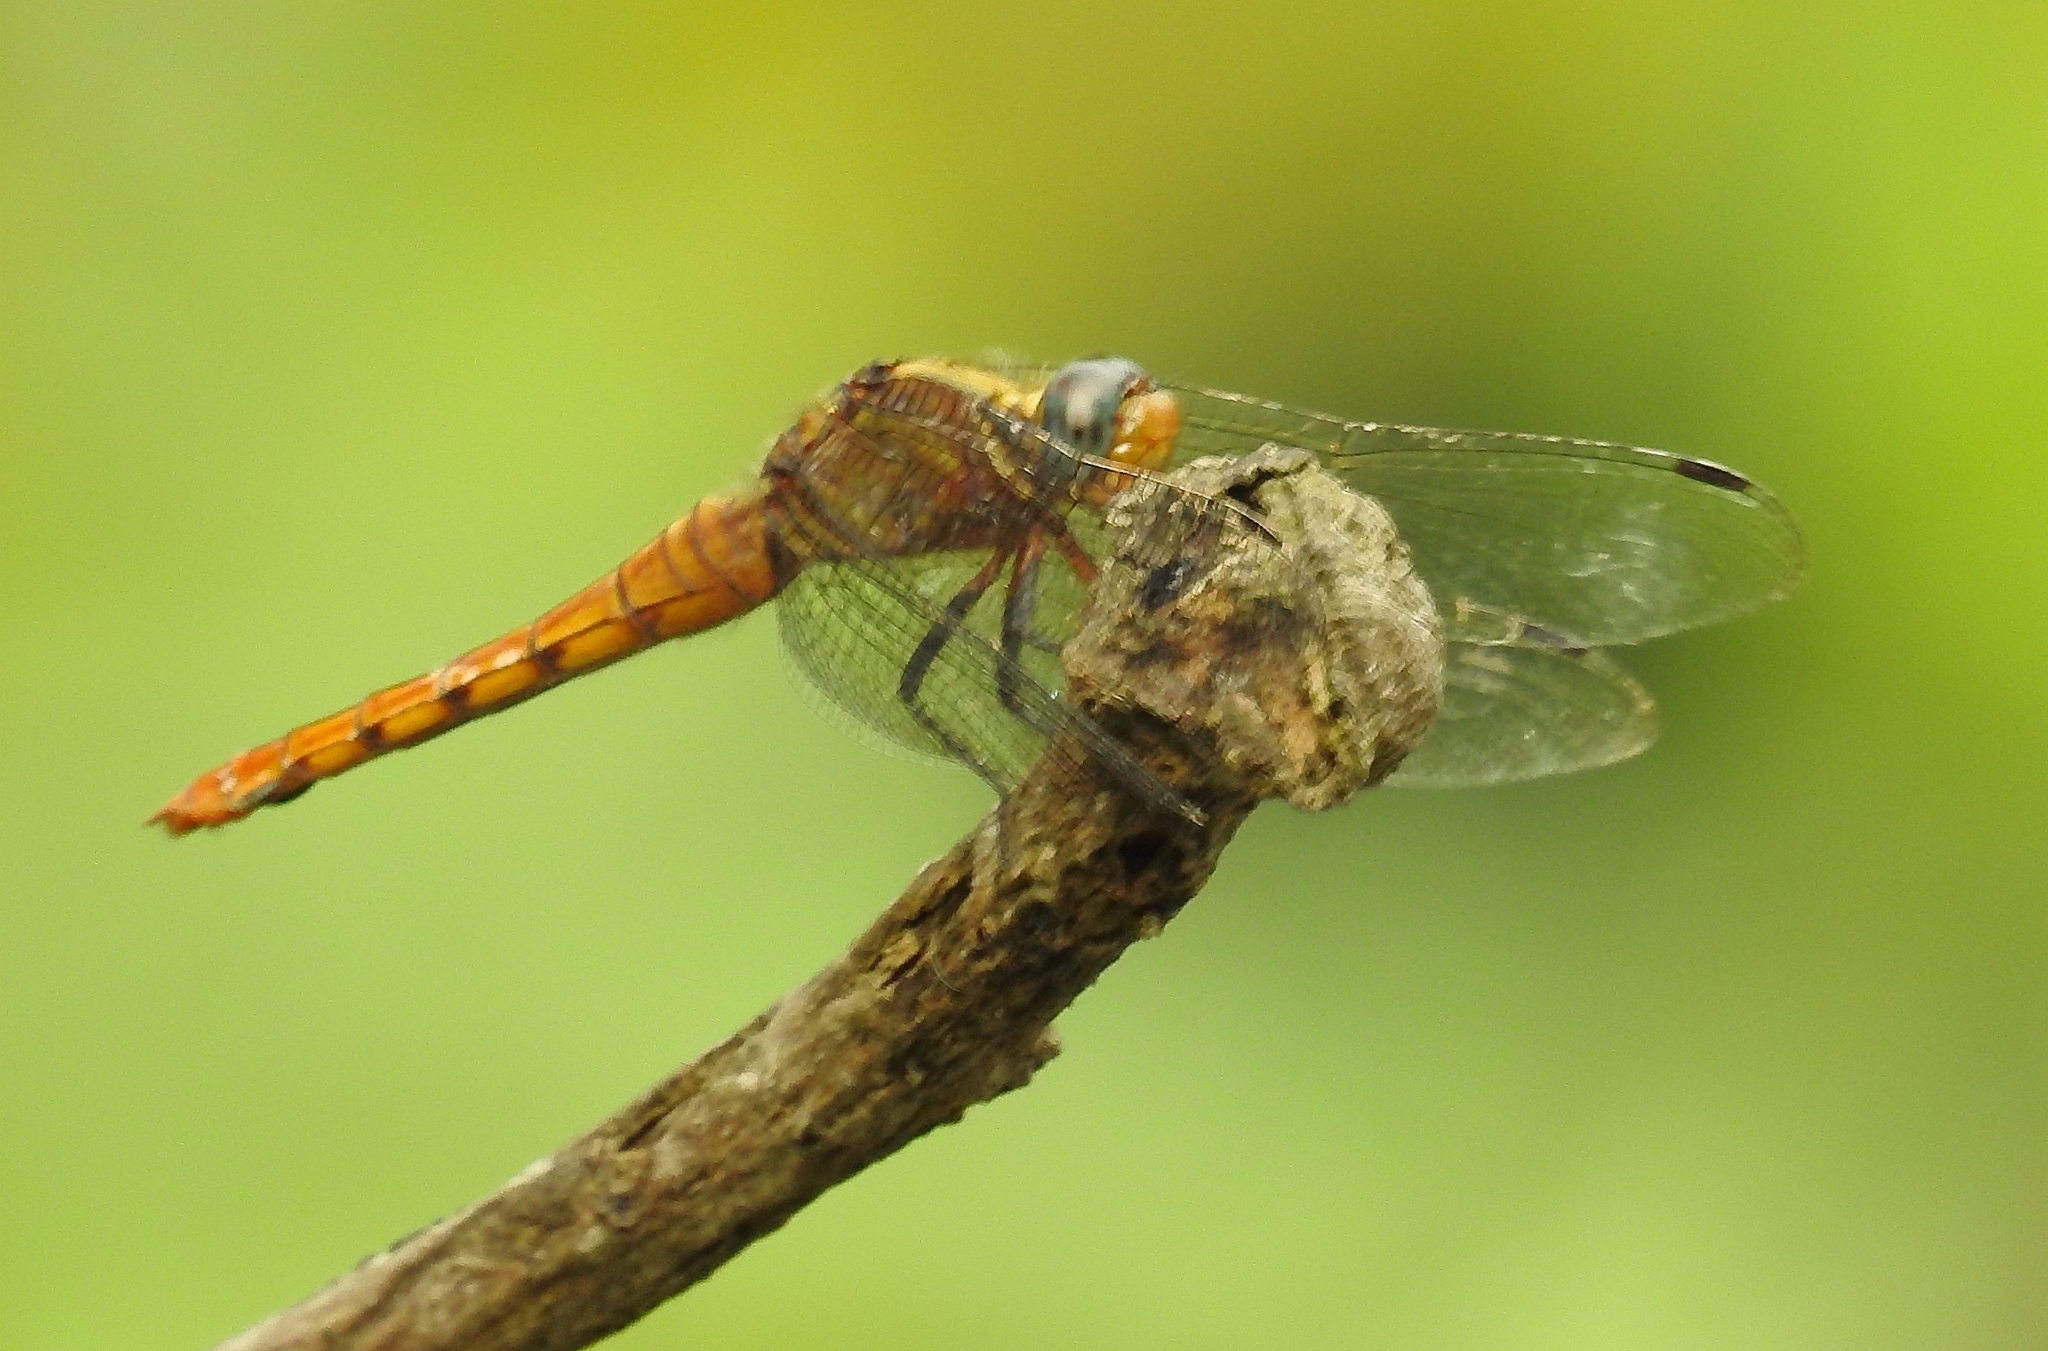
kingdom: Animalia
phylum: Arthropoda
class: Insecta
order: Odonata
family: Libellulidae
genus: Orthetrum
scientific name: Orthetrum chrysis
